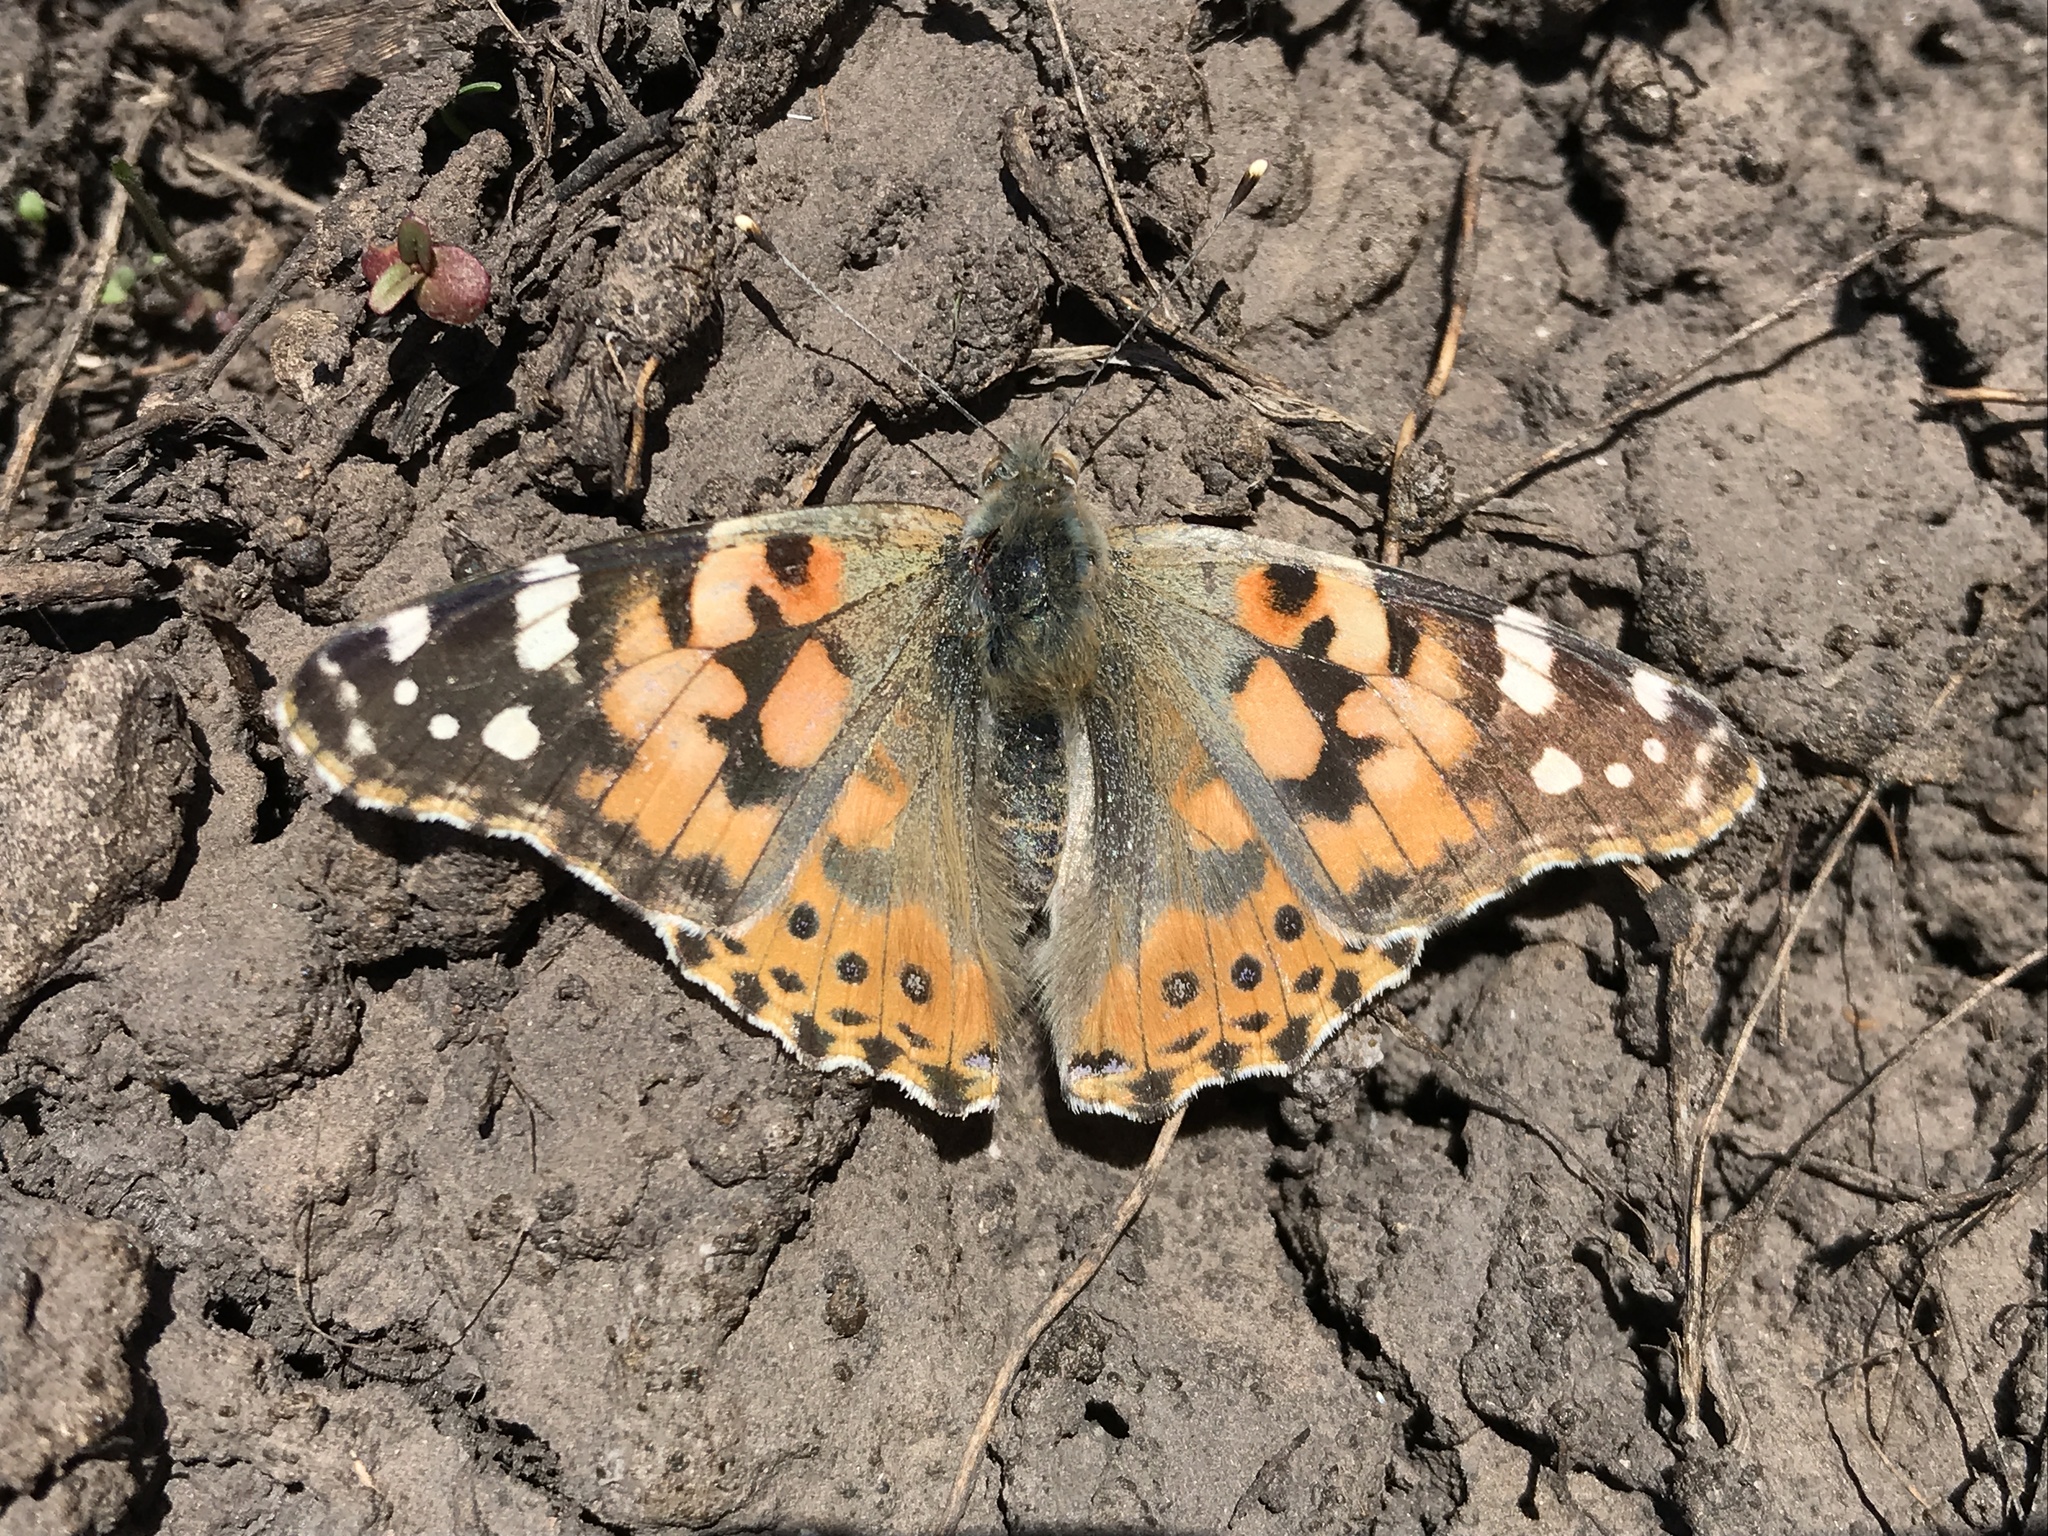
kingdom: Animalia
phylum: Arthropoda
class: Insecta
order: Lepidoptera
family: Nymphalidae
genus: Vanessa
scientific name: Vanessa cardui
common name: Painted lady
